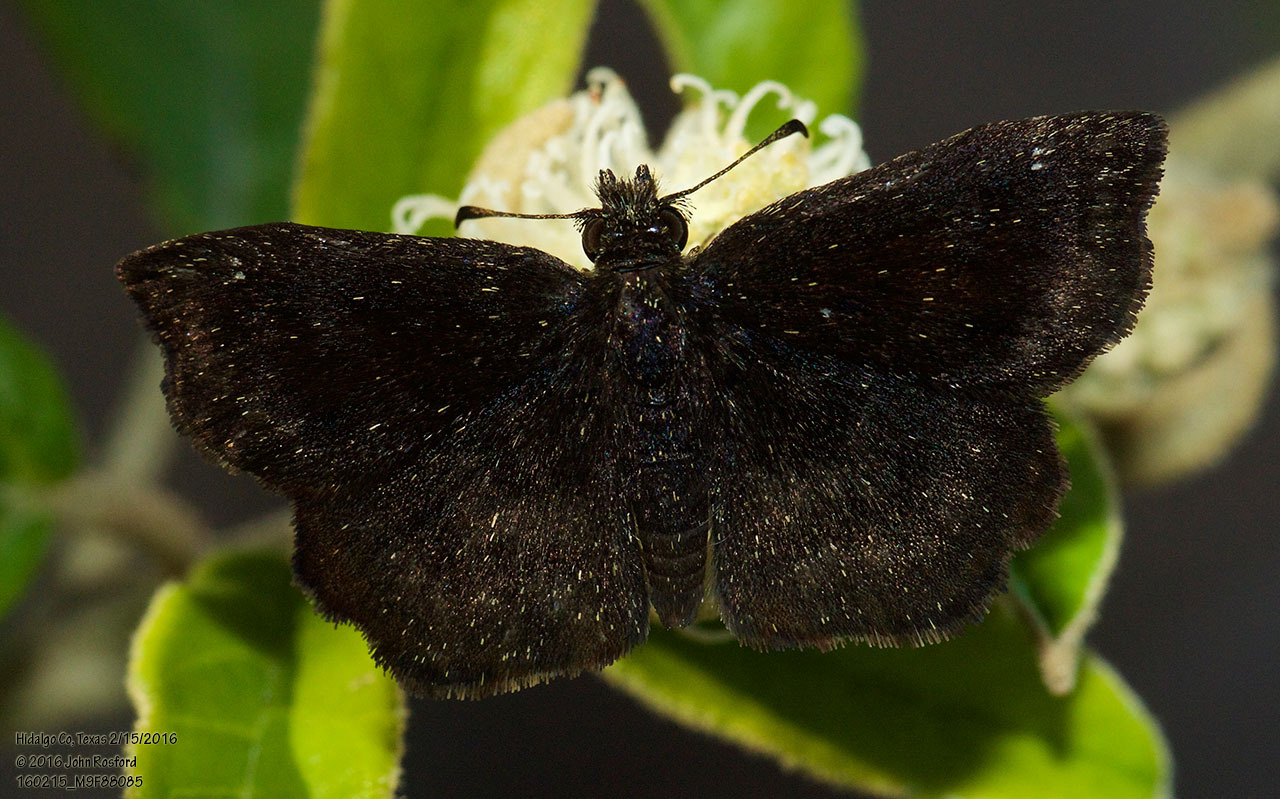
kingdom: Animalia
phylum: Arthropoda
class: Insecta
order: Lepidoptera
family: Hesperiidae
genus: Staphylus
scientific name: Staphylus mazans
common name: Mazans scallopwing
